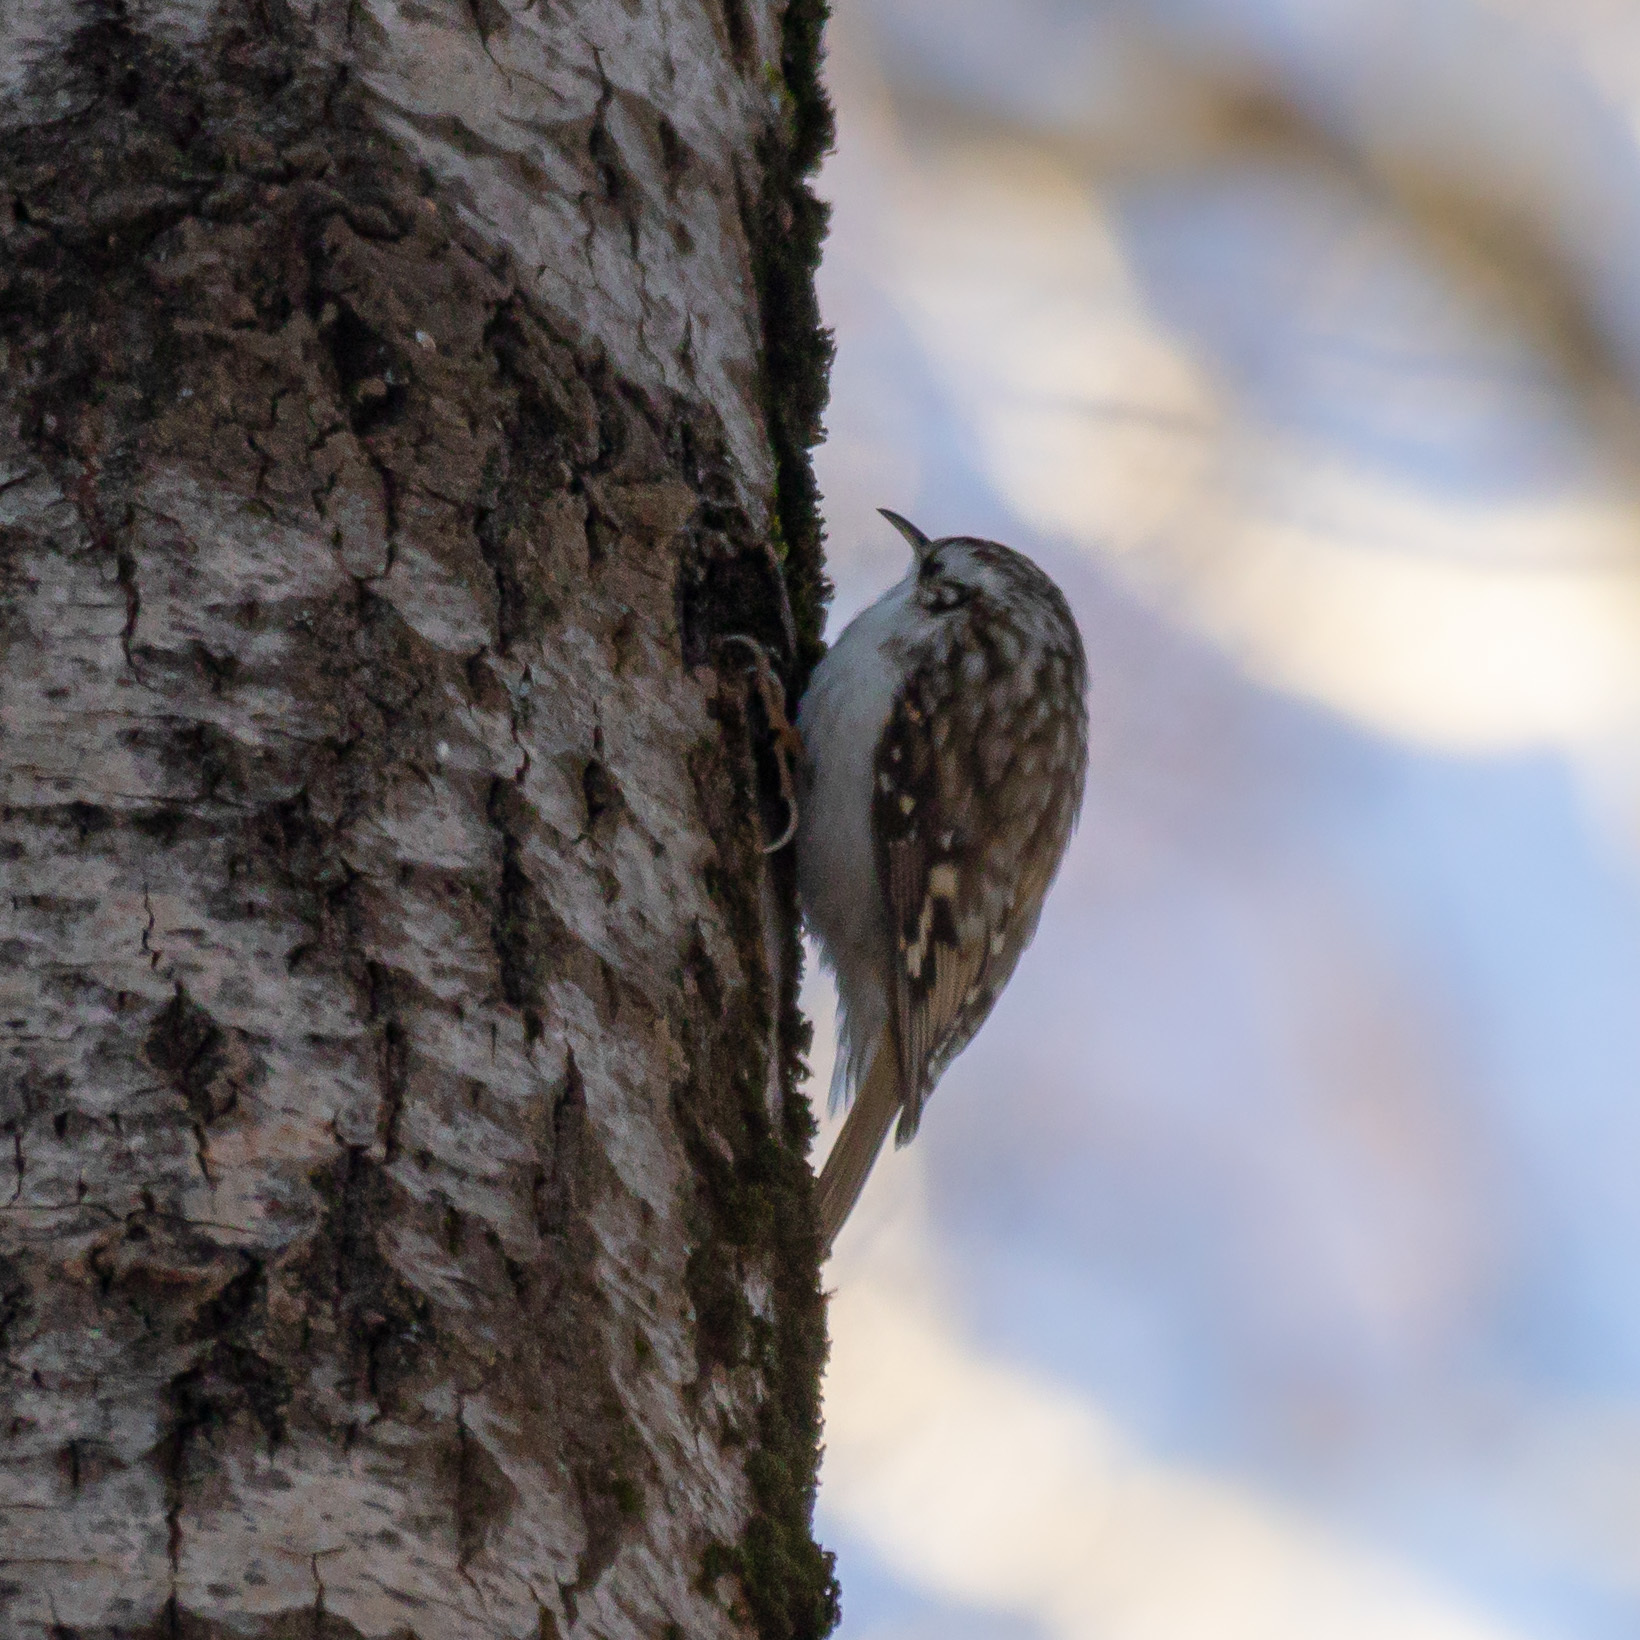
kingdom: Animalia
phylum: Chordata
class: Aves
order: Passeriformes
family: Certhiidae
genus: Certhia
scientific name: Certhia familiaris
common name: Eurasian treecreeper
